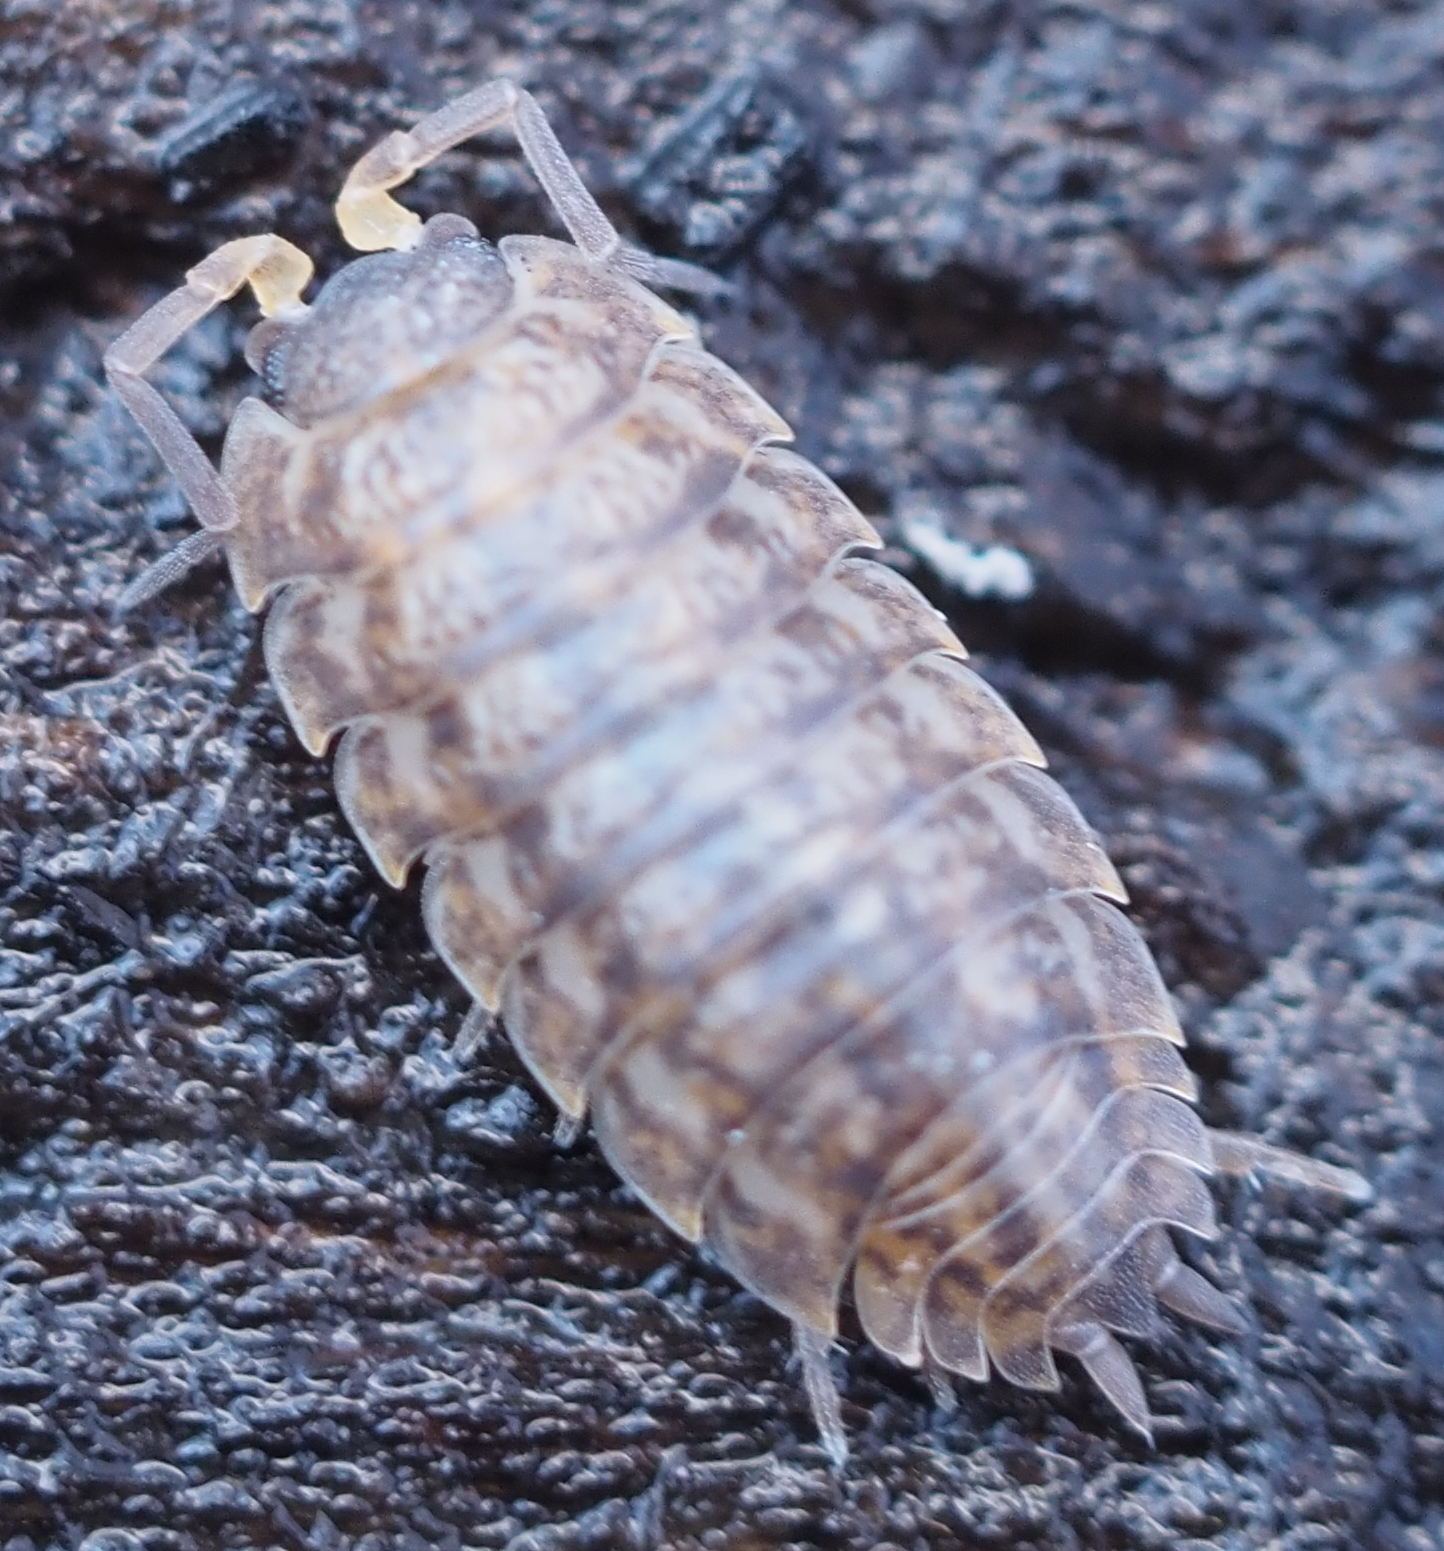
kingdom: Animalia
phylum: Arthropoda
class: Malacostraca
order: Isopoda
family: Trachelipodidae
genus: Trachelipus
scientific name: Trachelipus rathkii
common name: Isopod
